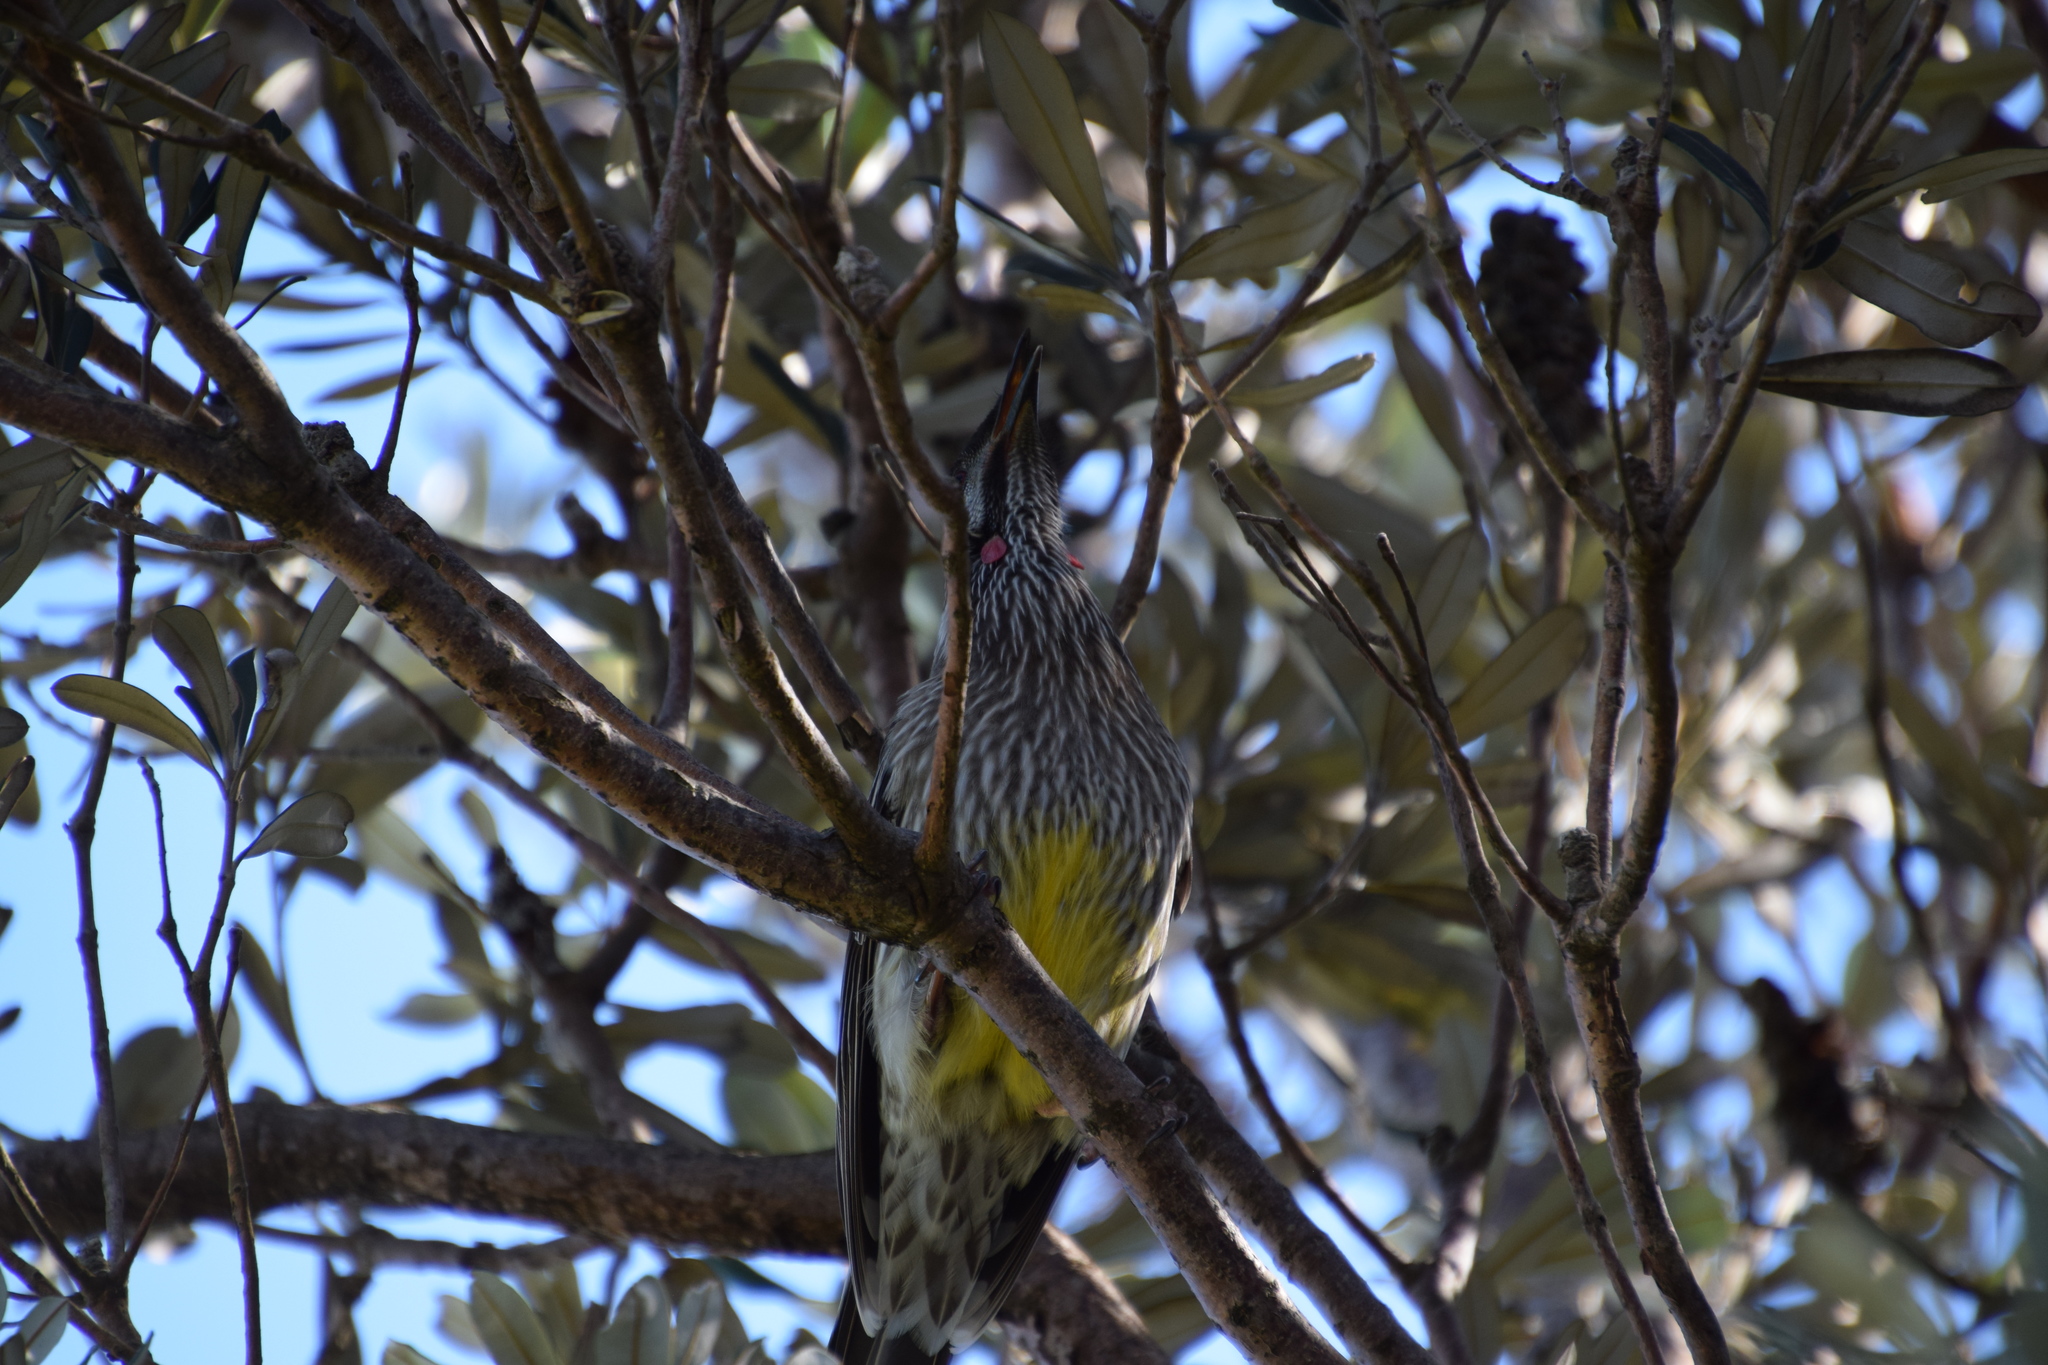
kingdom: Animalia
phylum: Chordata
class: Aves
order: Passeriformes
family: Meliphagidae
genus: Anthochaera
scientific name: Anthochaera carunculata
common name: Red wattlebird
